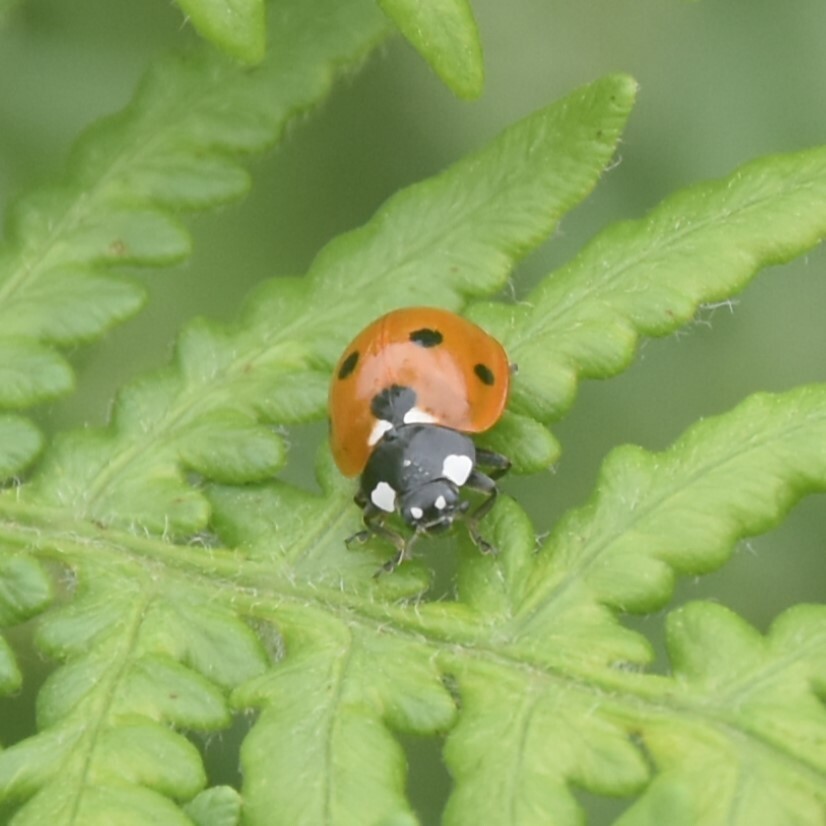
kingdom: Animalia
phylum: Arthropoda
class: Insecta
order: Coleoptera
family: Coccinellidae
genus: Coccinella
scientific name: Coccinella septempunctata
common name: Sevenspotted lady beetle
